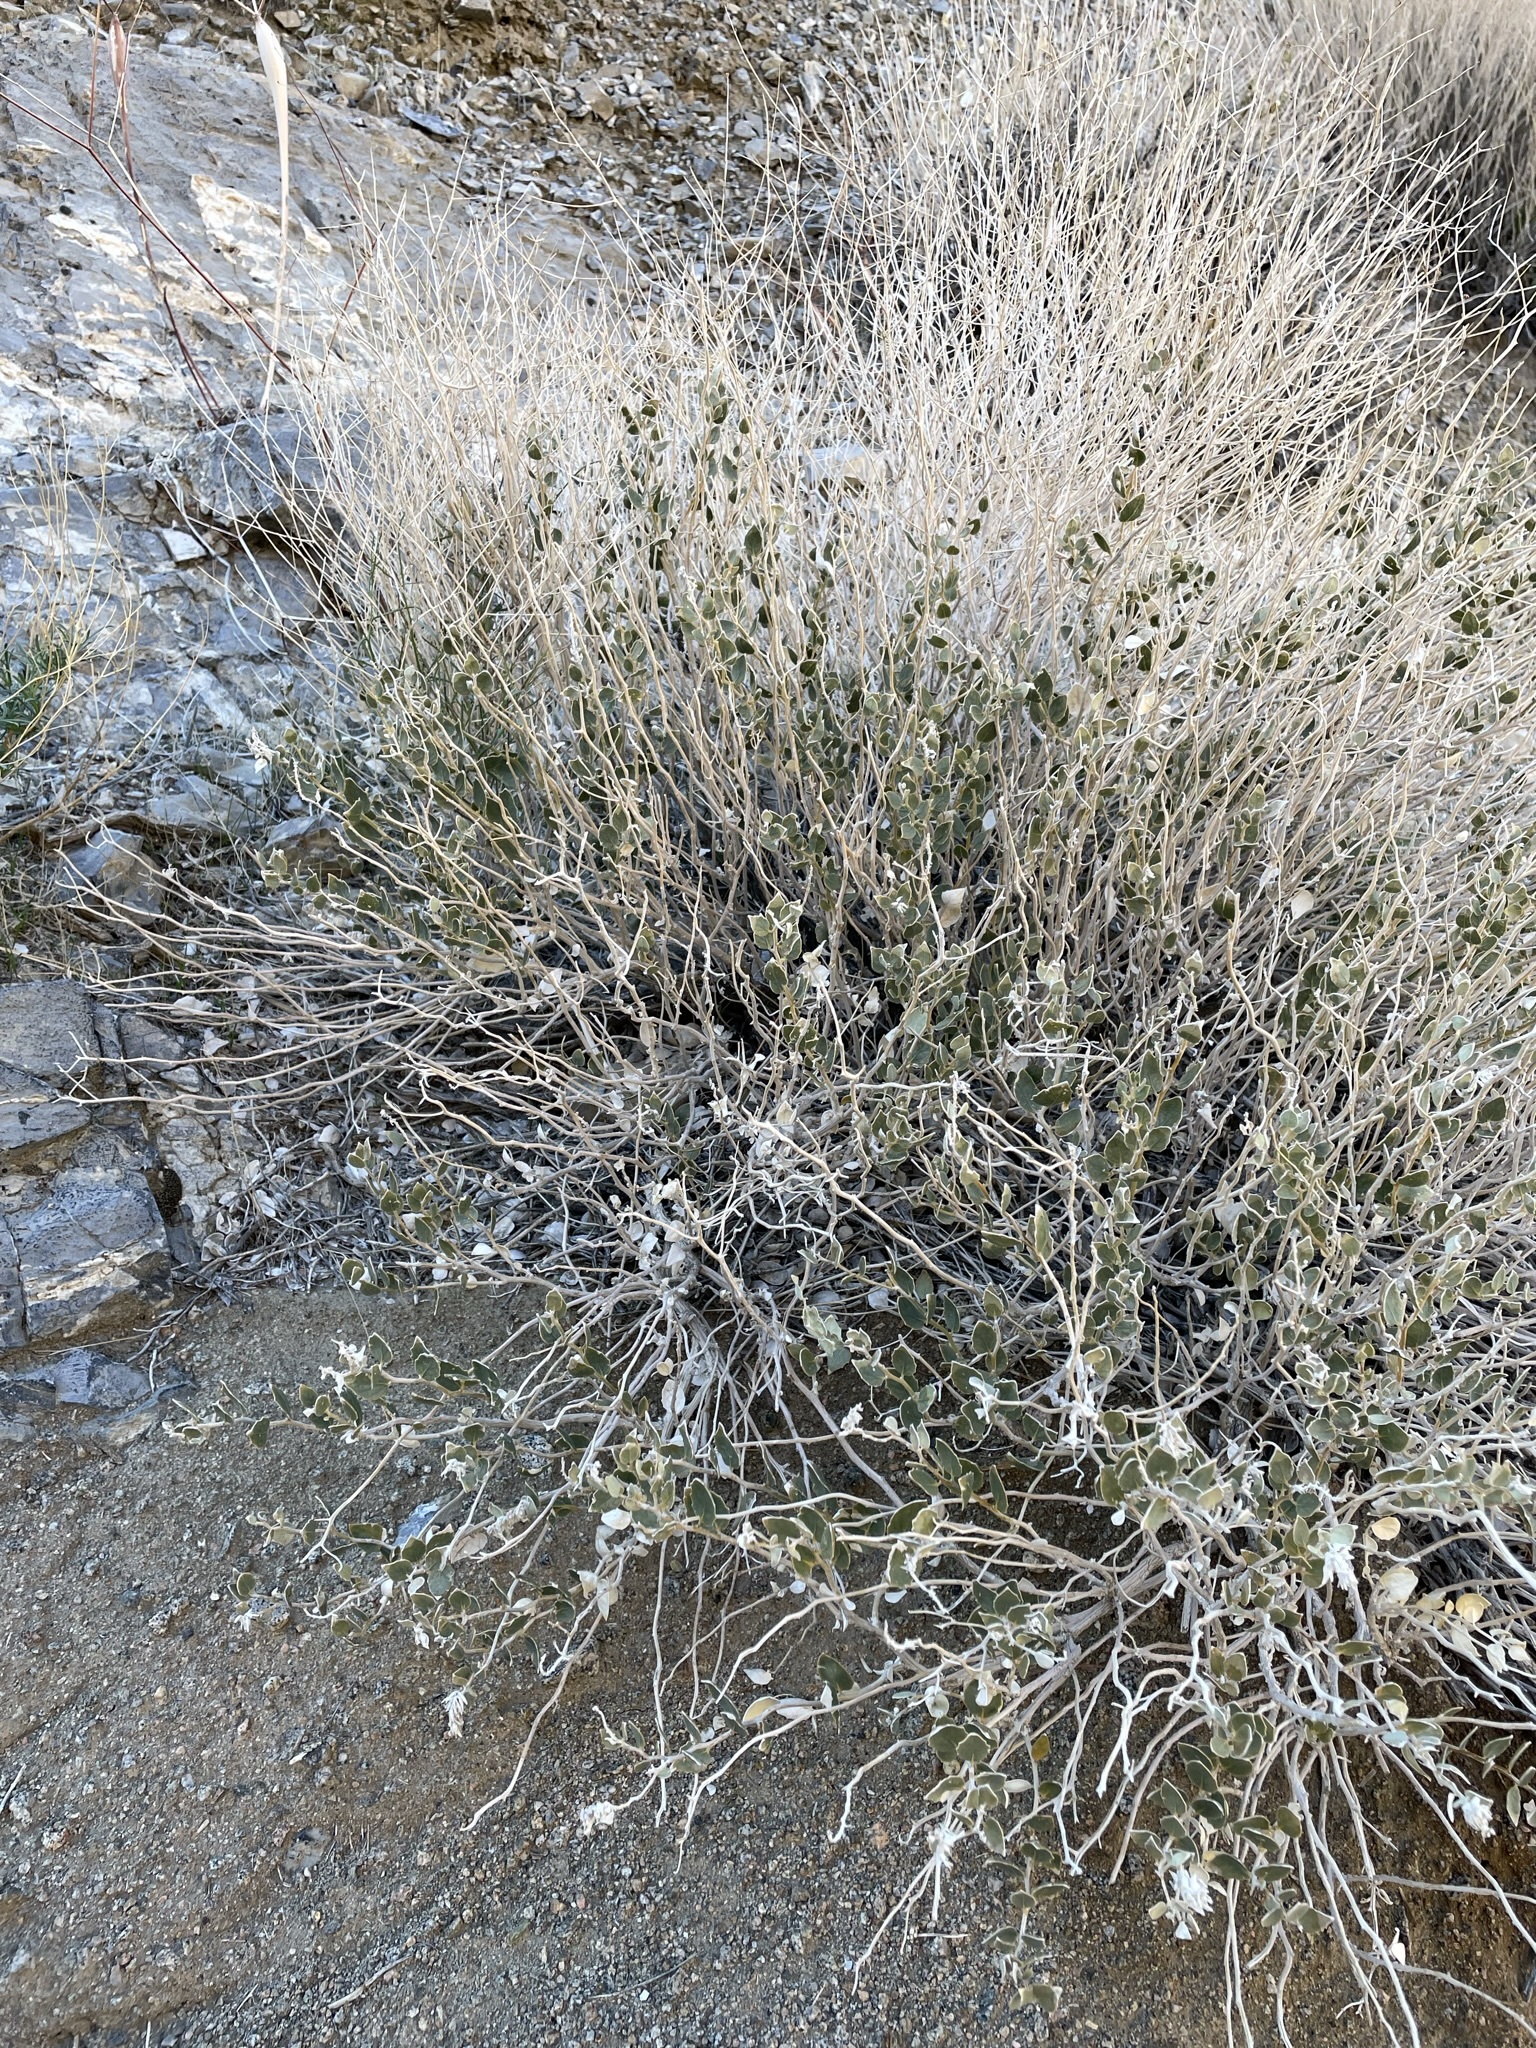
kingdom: Plantae
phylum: Tracheophyta
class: Magnoliopsida
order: Cornales
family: Loasaceae
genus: Petalonyx
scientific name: Petalonyx nitidus
